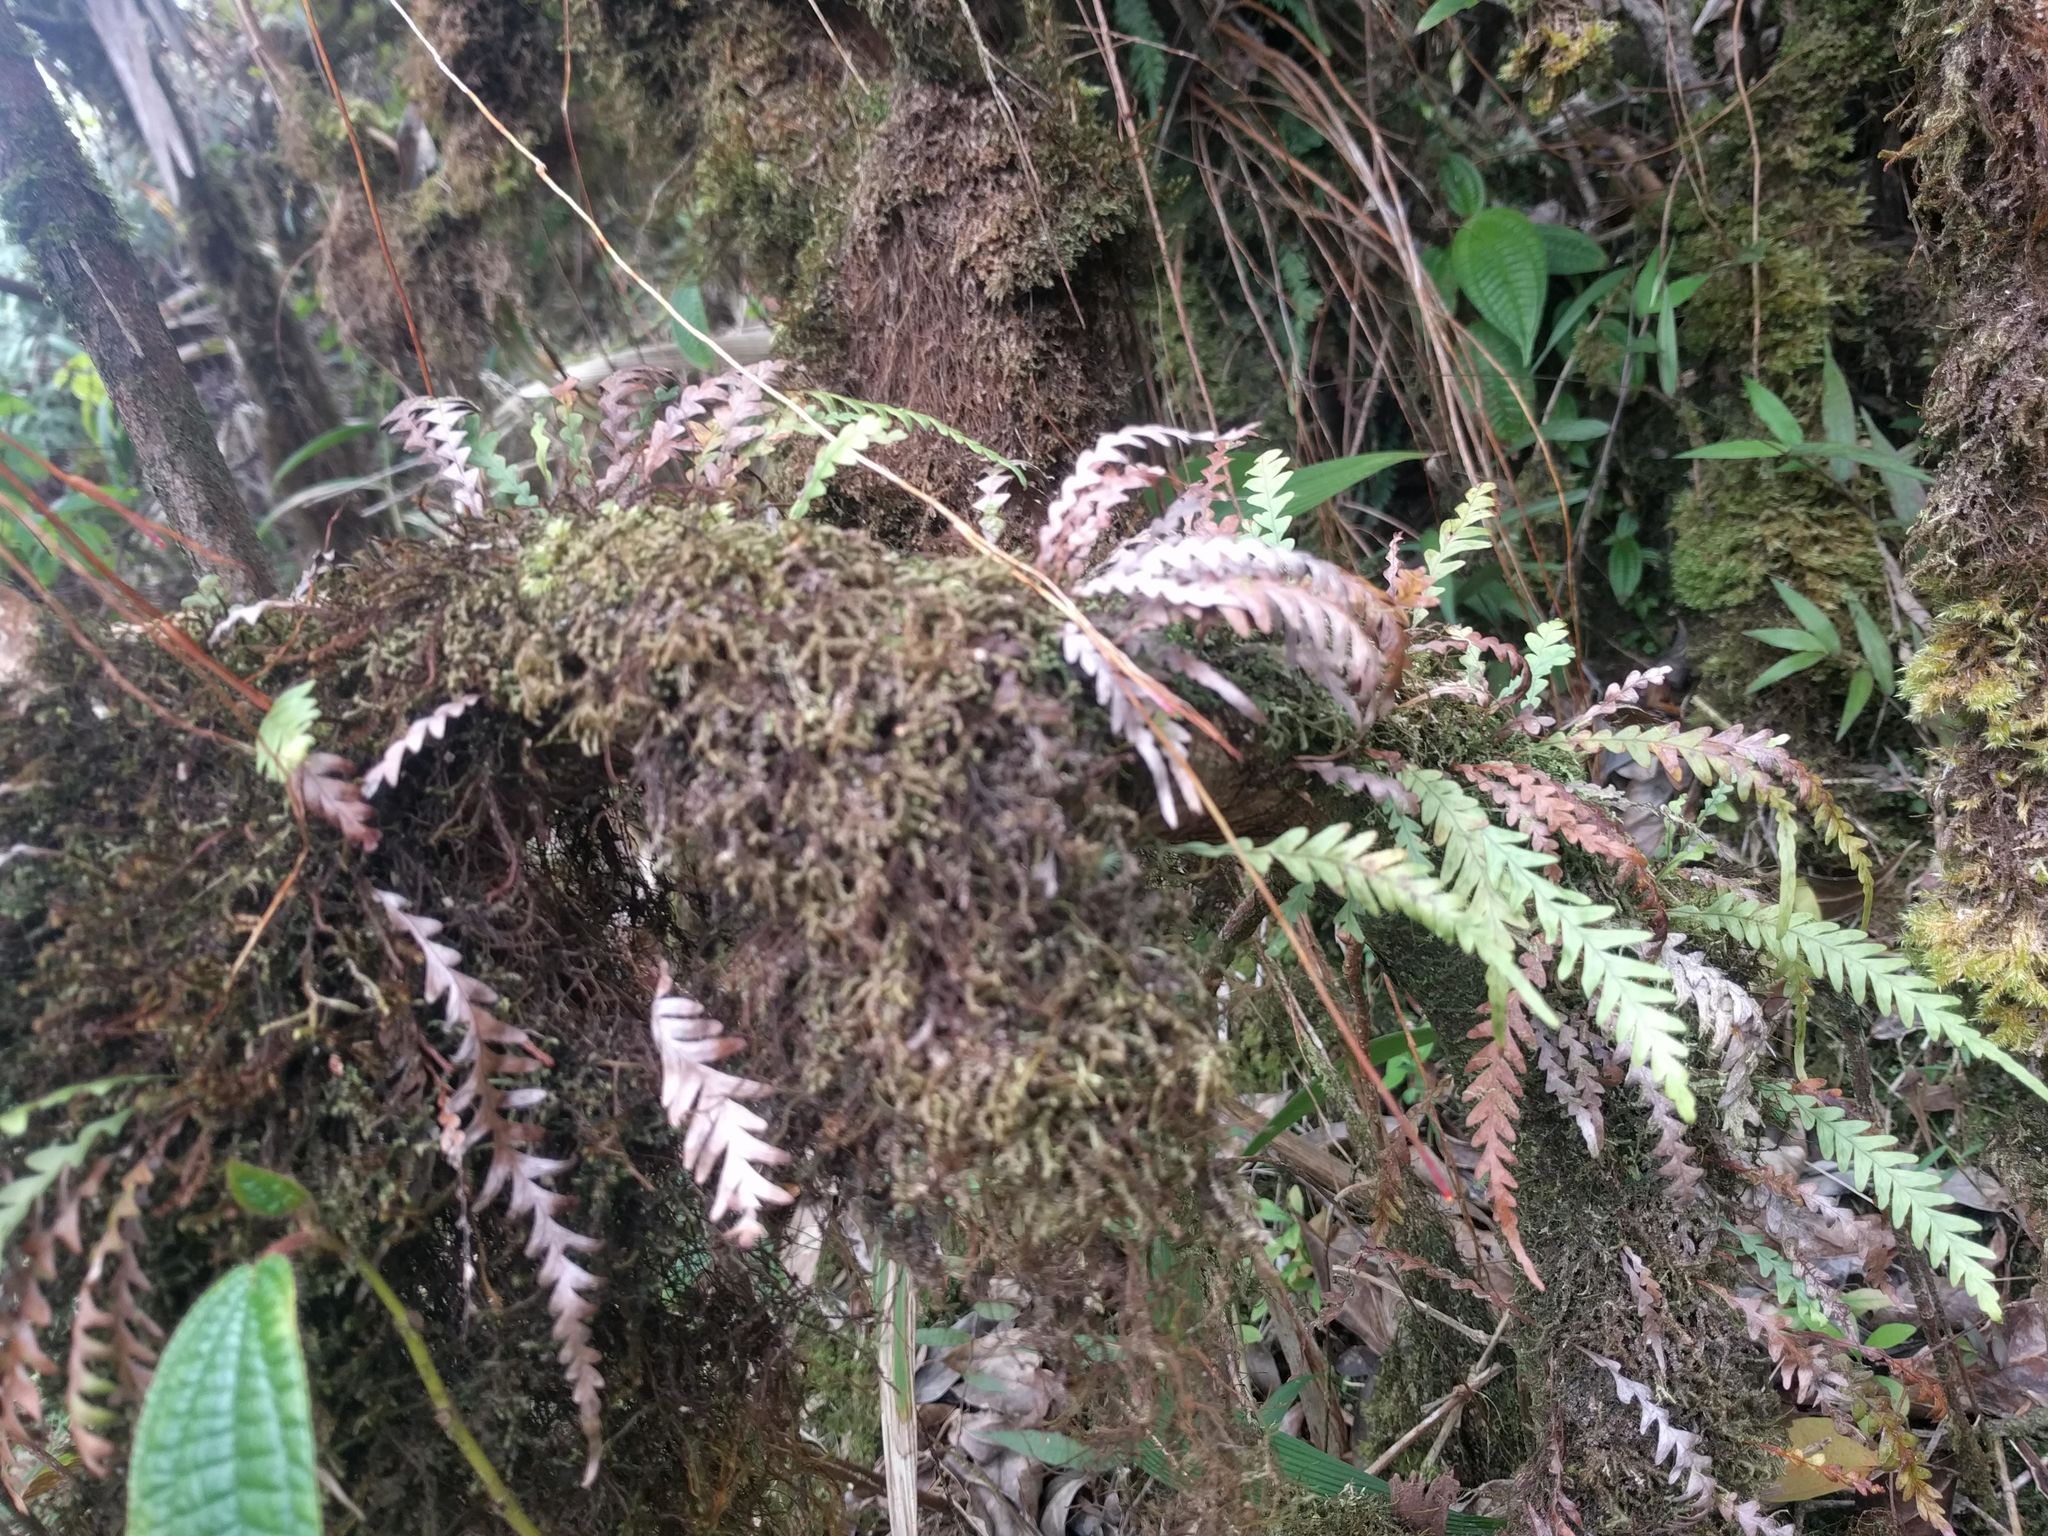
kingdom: Plantae
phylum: Tracheophyta
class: Polypodiopsida
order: Polypodiales
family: Polypodiaceae
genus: Adenophorus
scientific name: Adenophorus pinnatifidus
